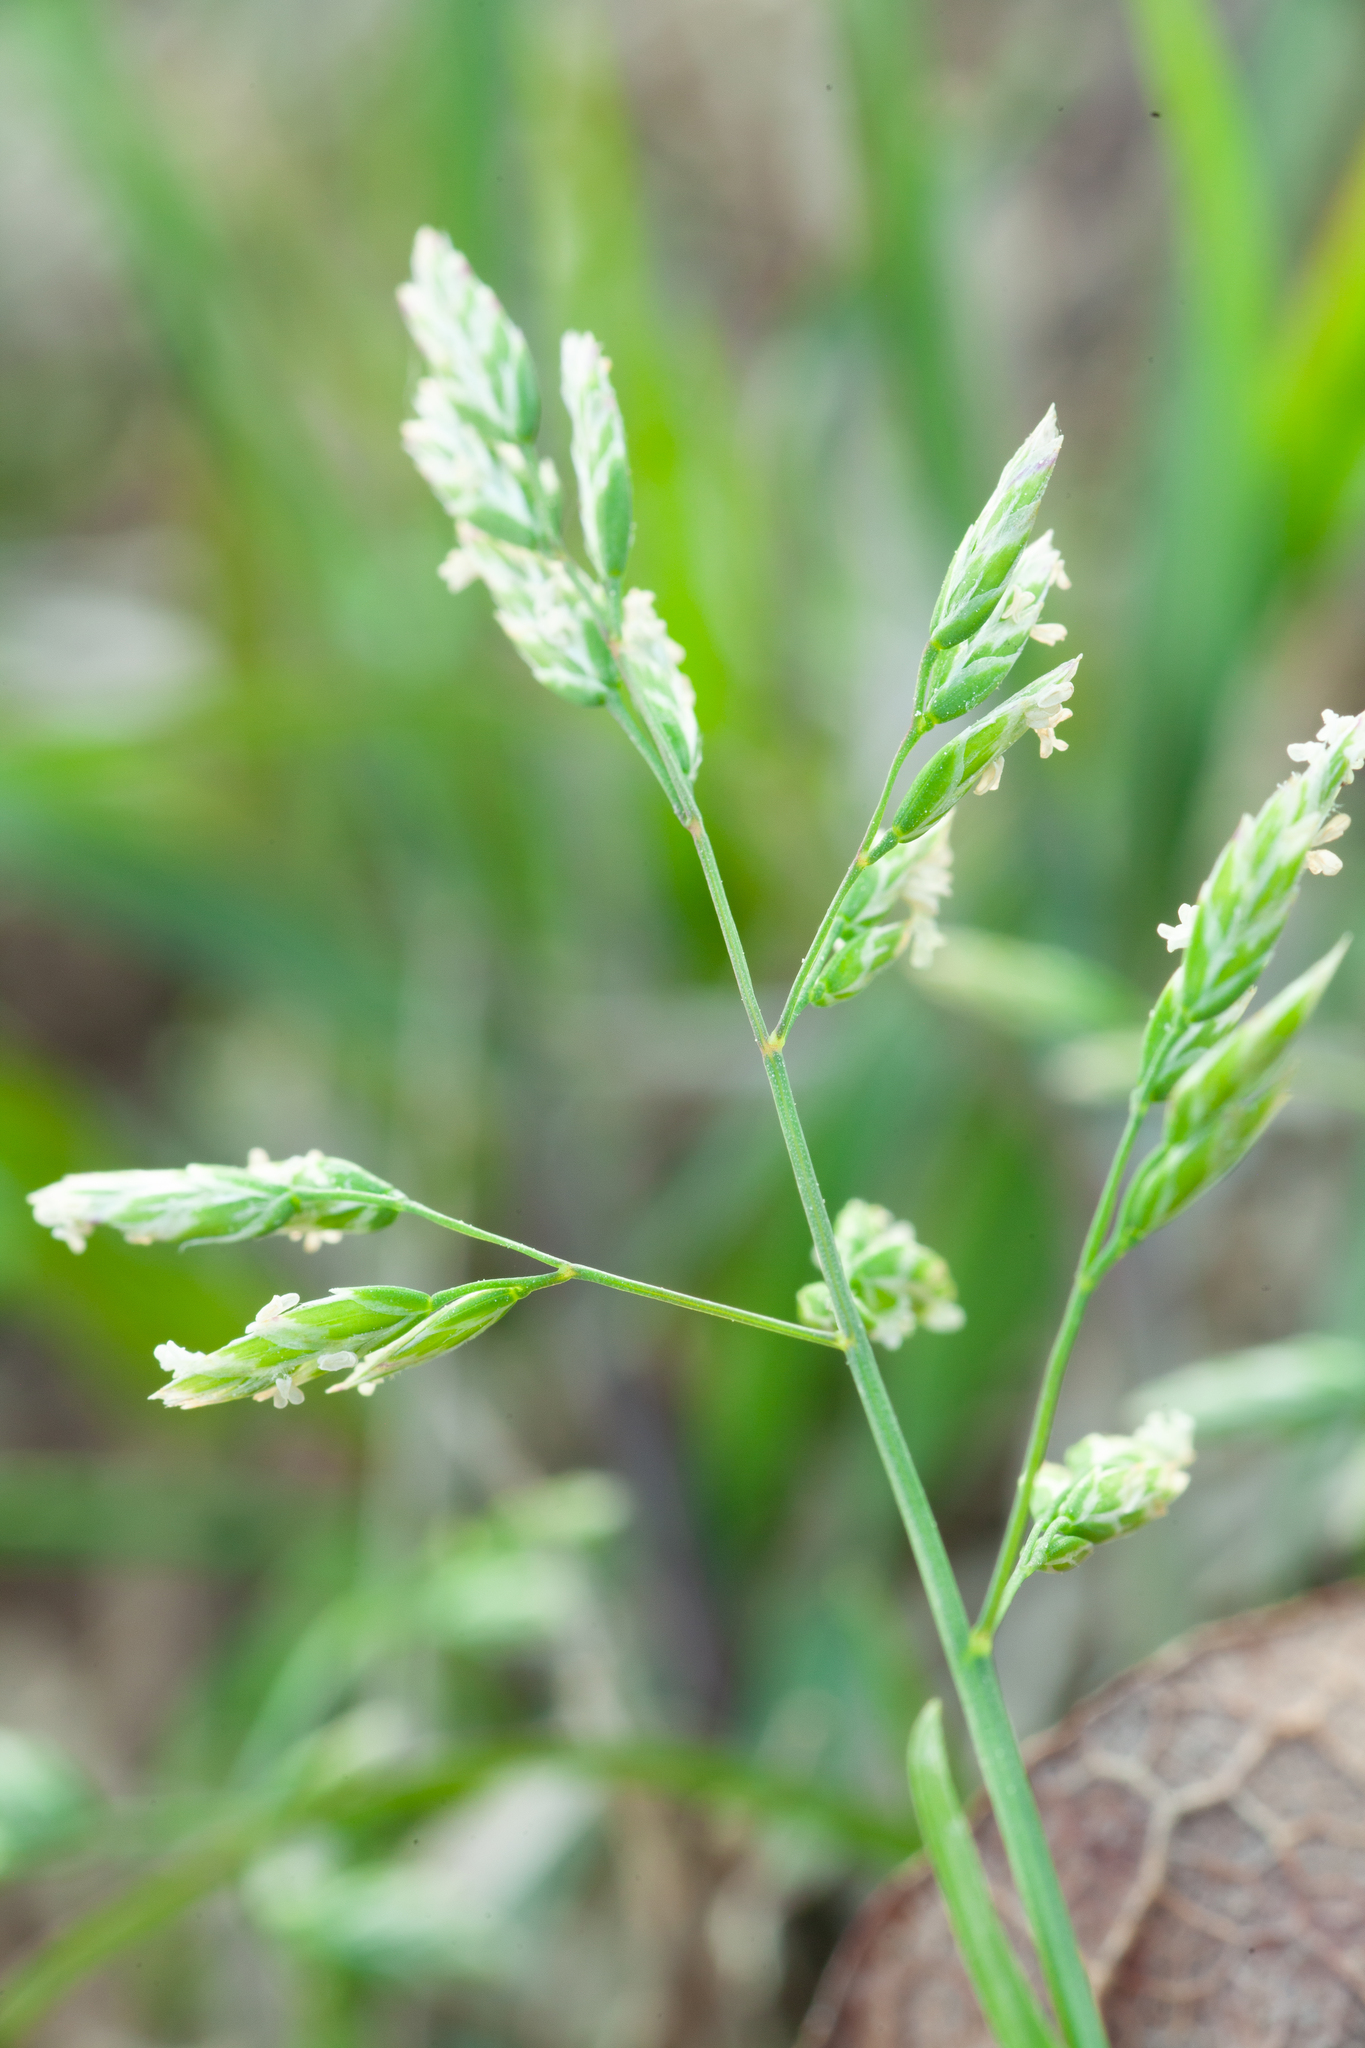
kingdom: Plantae
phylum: Tracheophyta
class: Liliopsida
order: Poales
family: Poaceae
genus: Poa
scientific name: Poa annua
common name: Annual bluegrass
